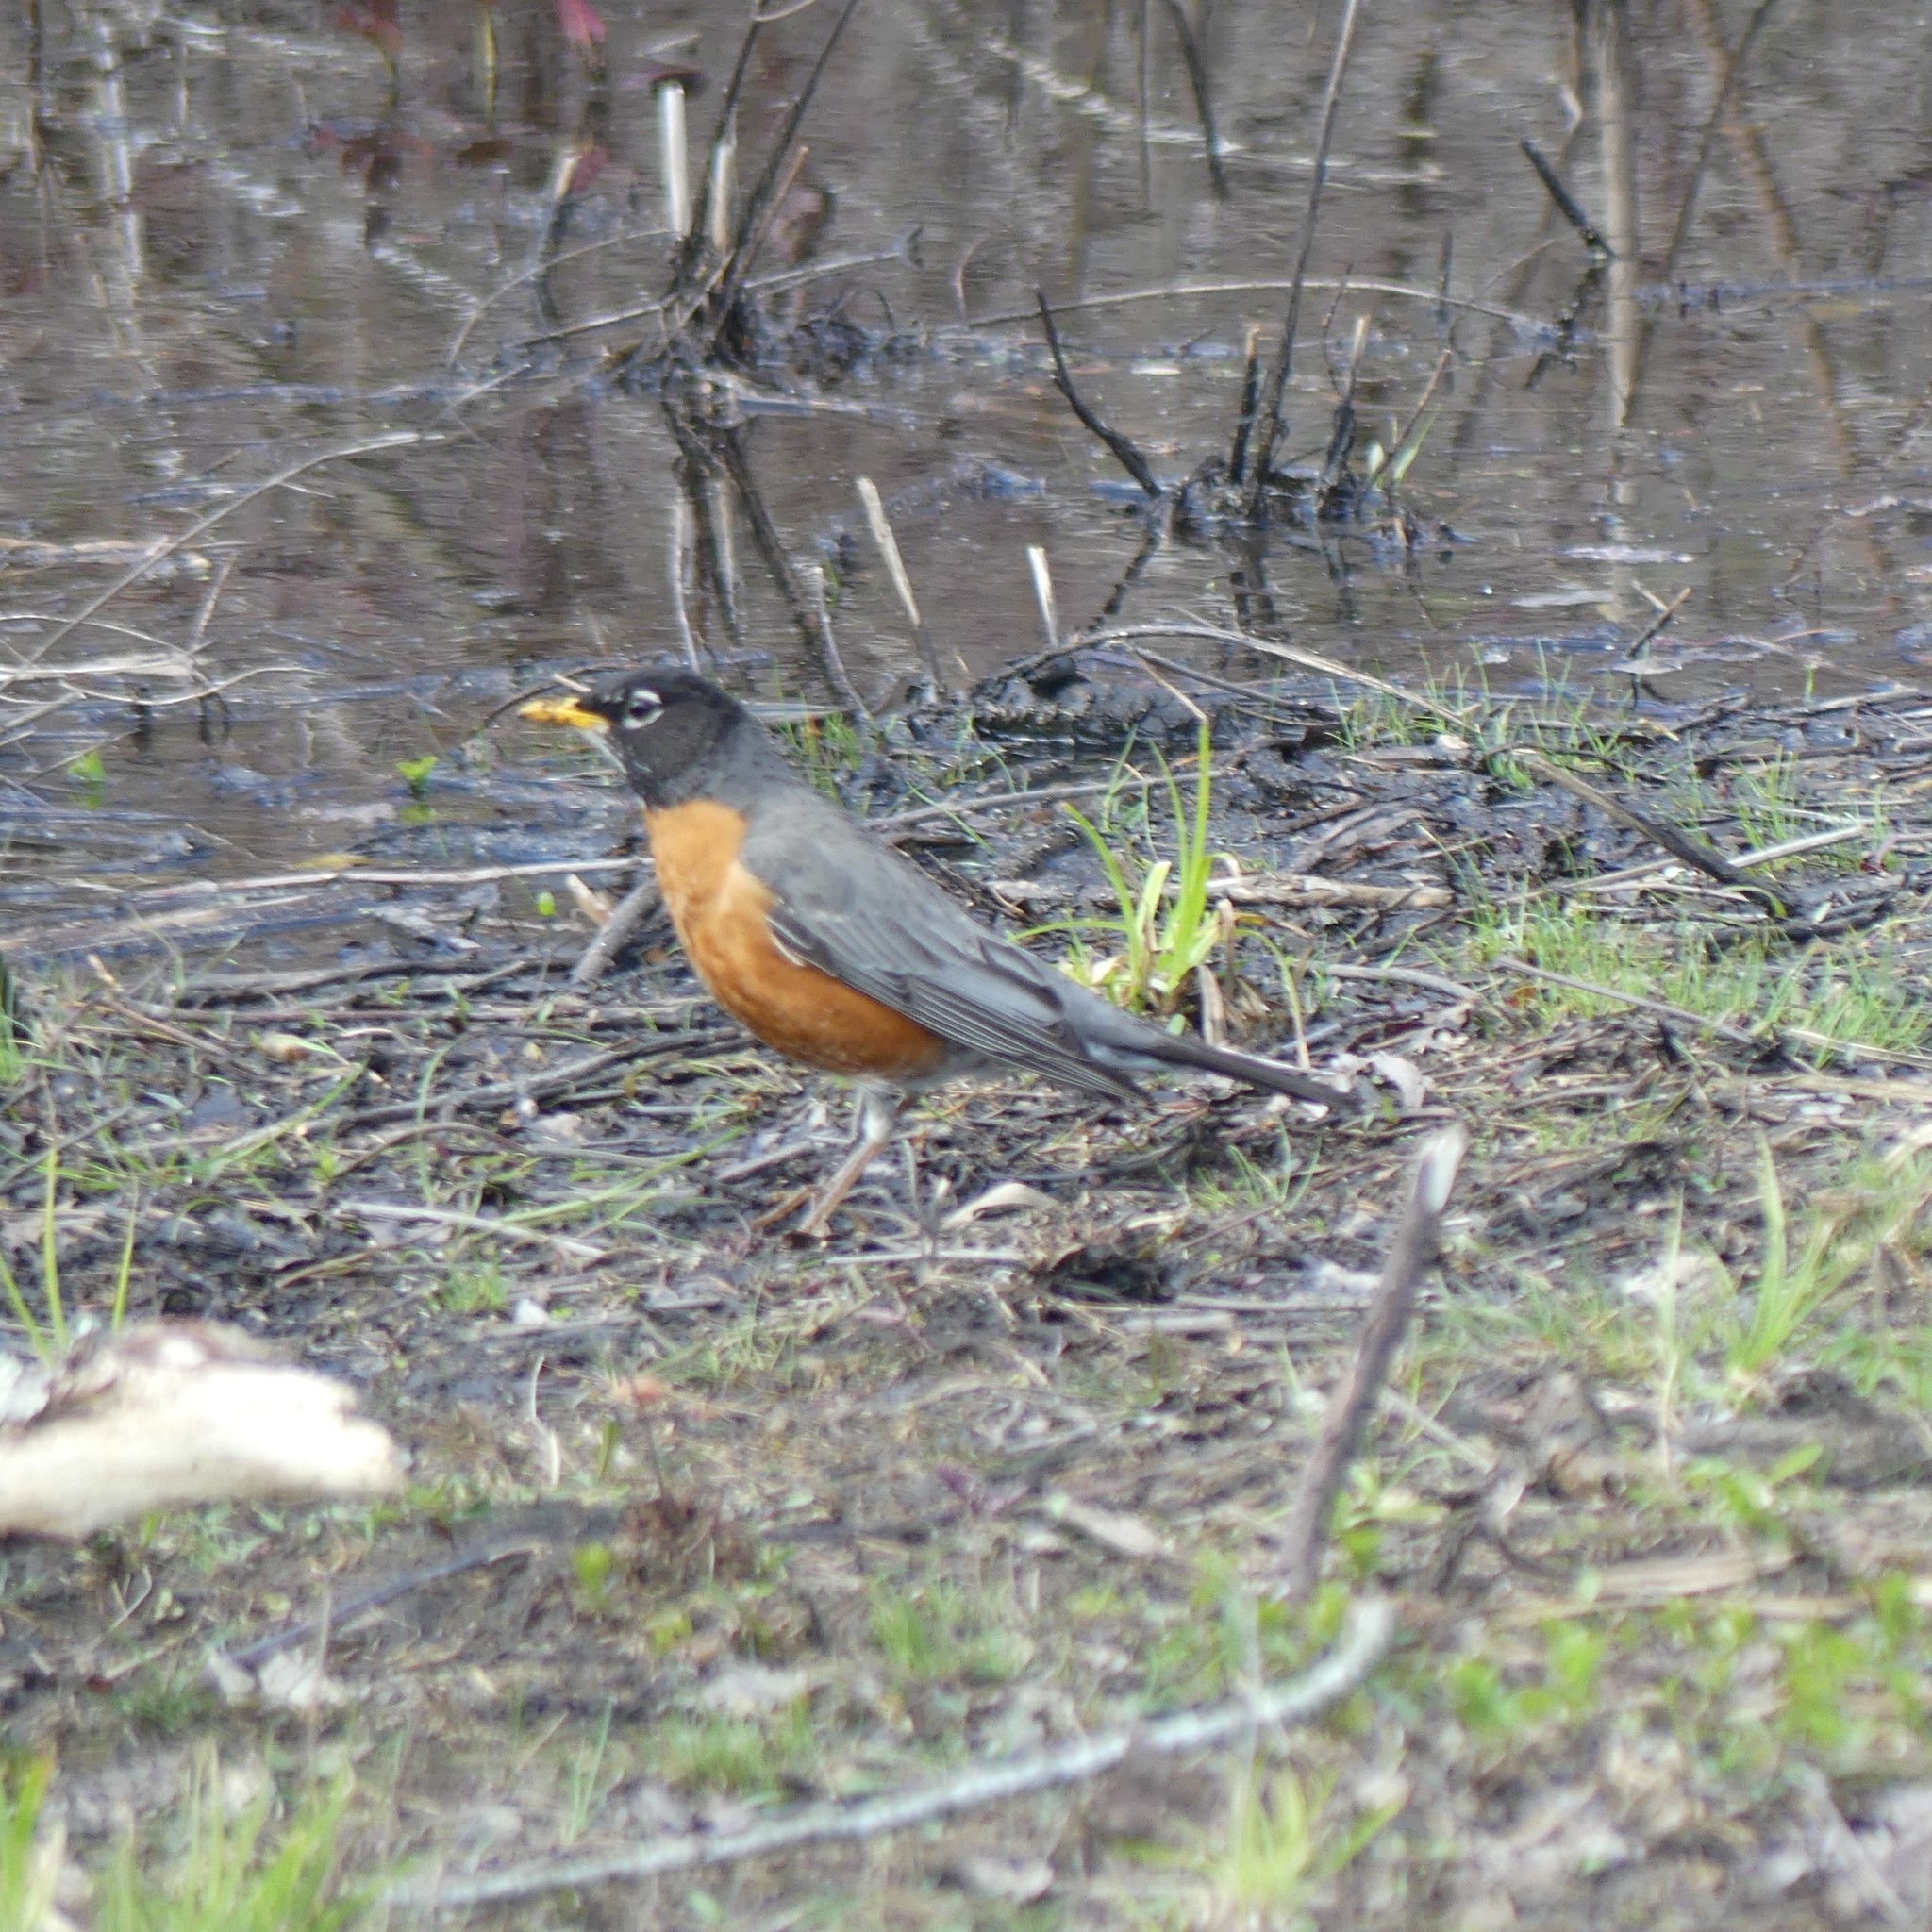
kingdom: Animalia
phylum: Chordata
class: Aves
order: Passeriformes
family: Turdidae
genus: Turdus
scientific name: Turdus migratorius
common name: American robin
